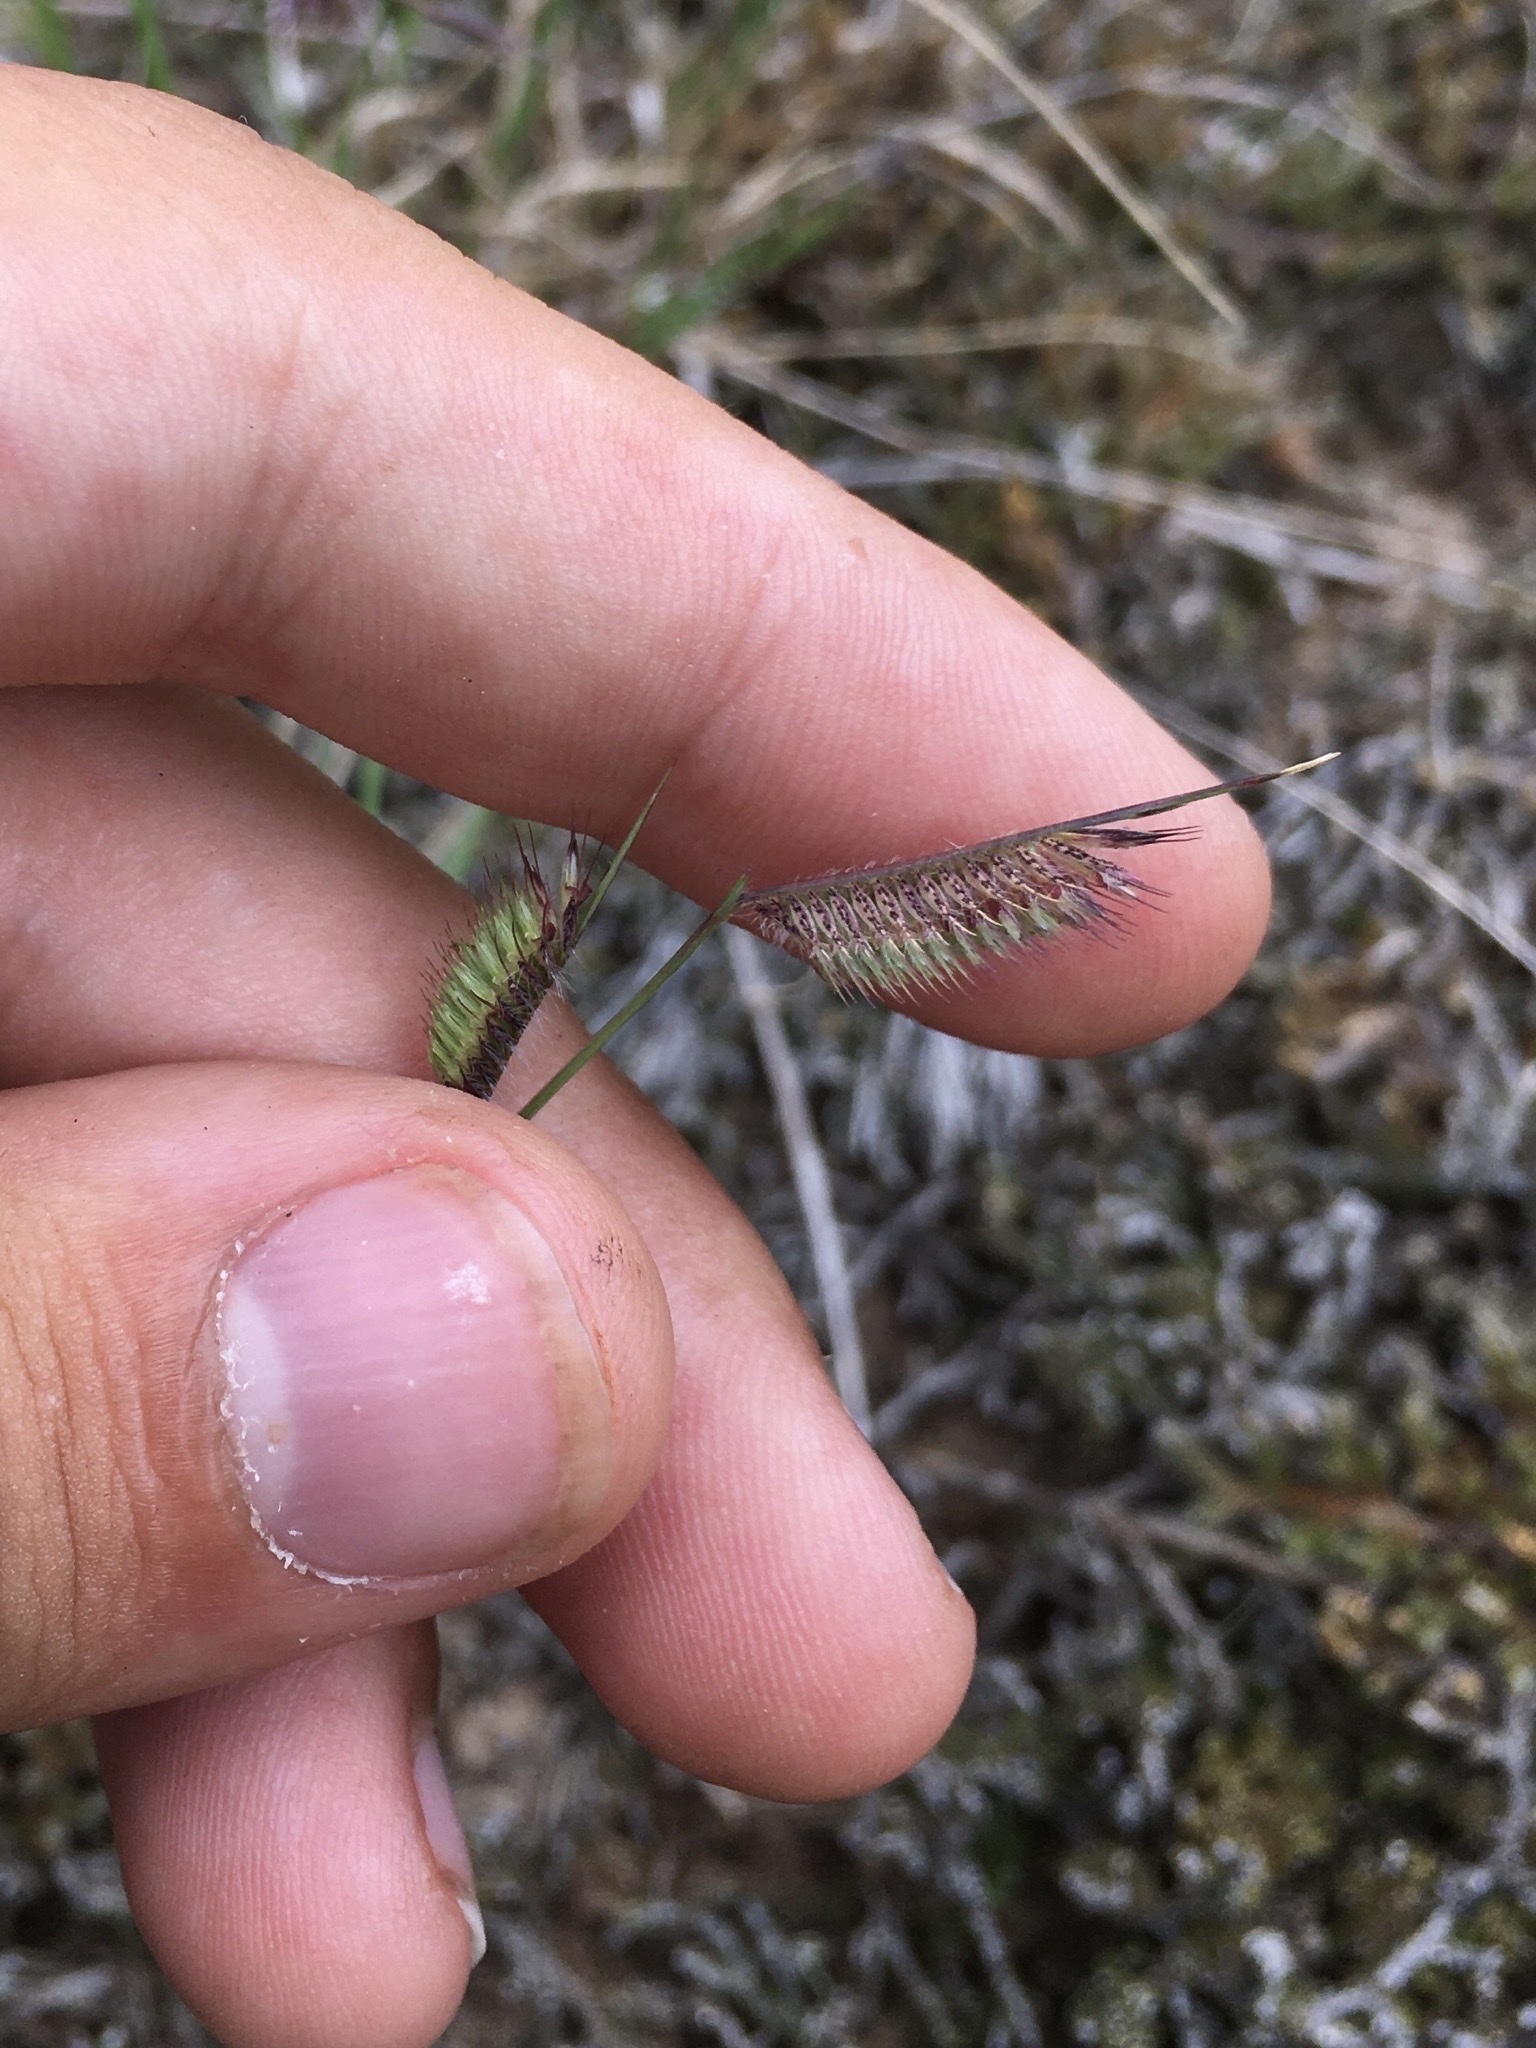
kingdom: Plantae
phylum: Tracheophyta
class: Liliopsida
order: Poales
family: Poaceae
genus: Bouteloua
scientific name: Bouteloua hirsuta
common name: Hairy grama
